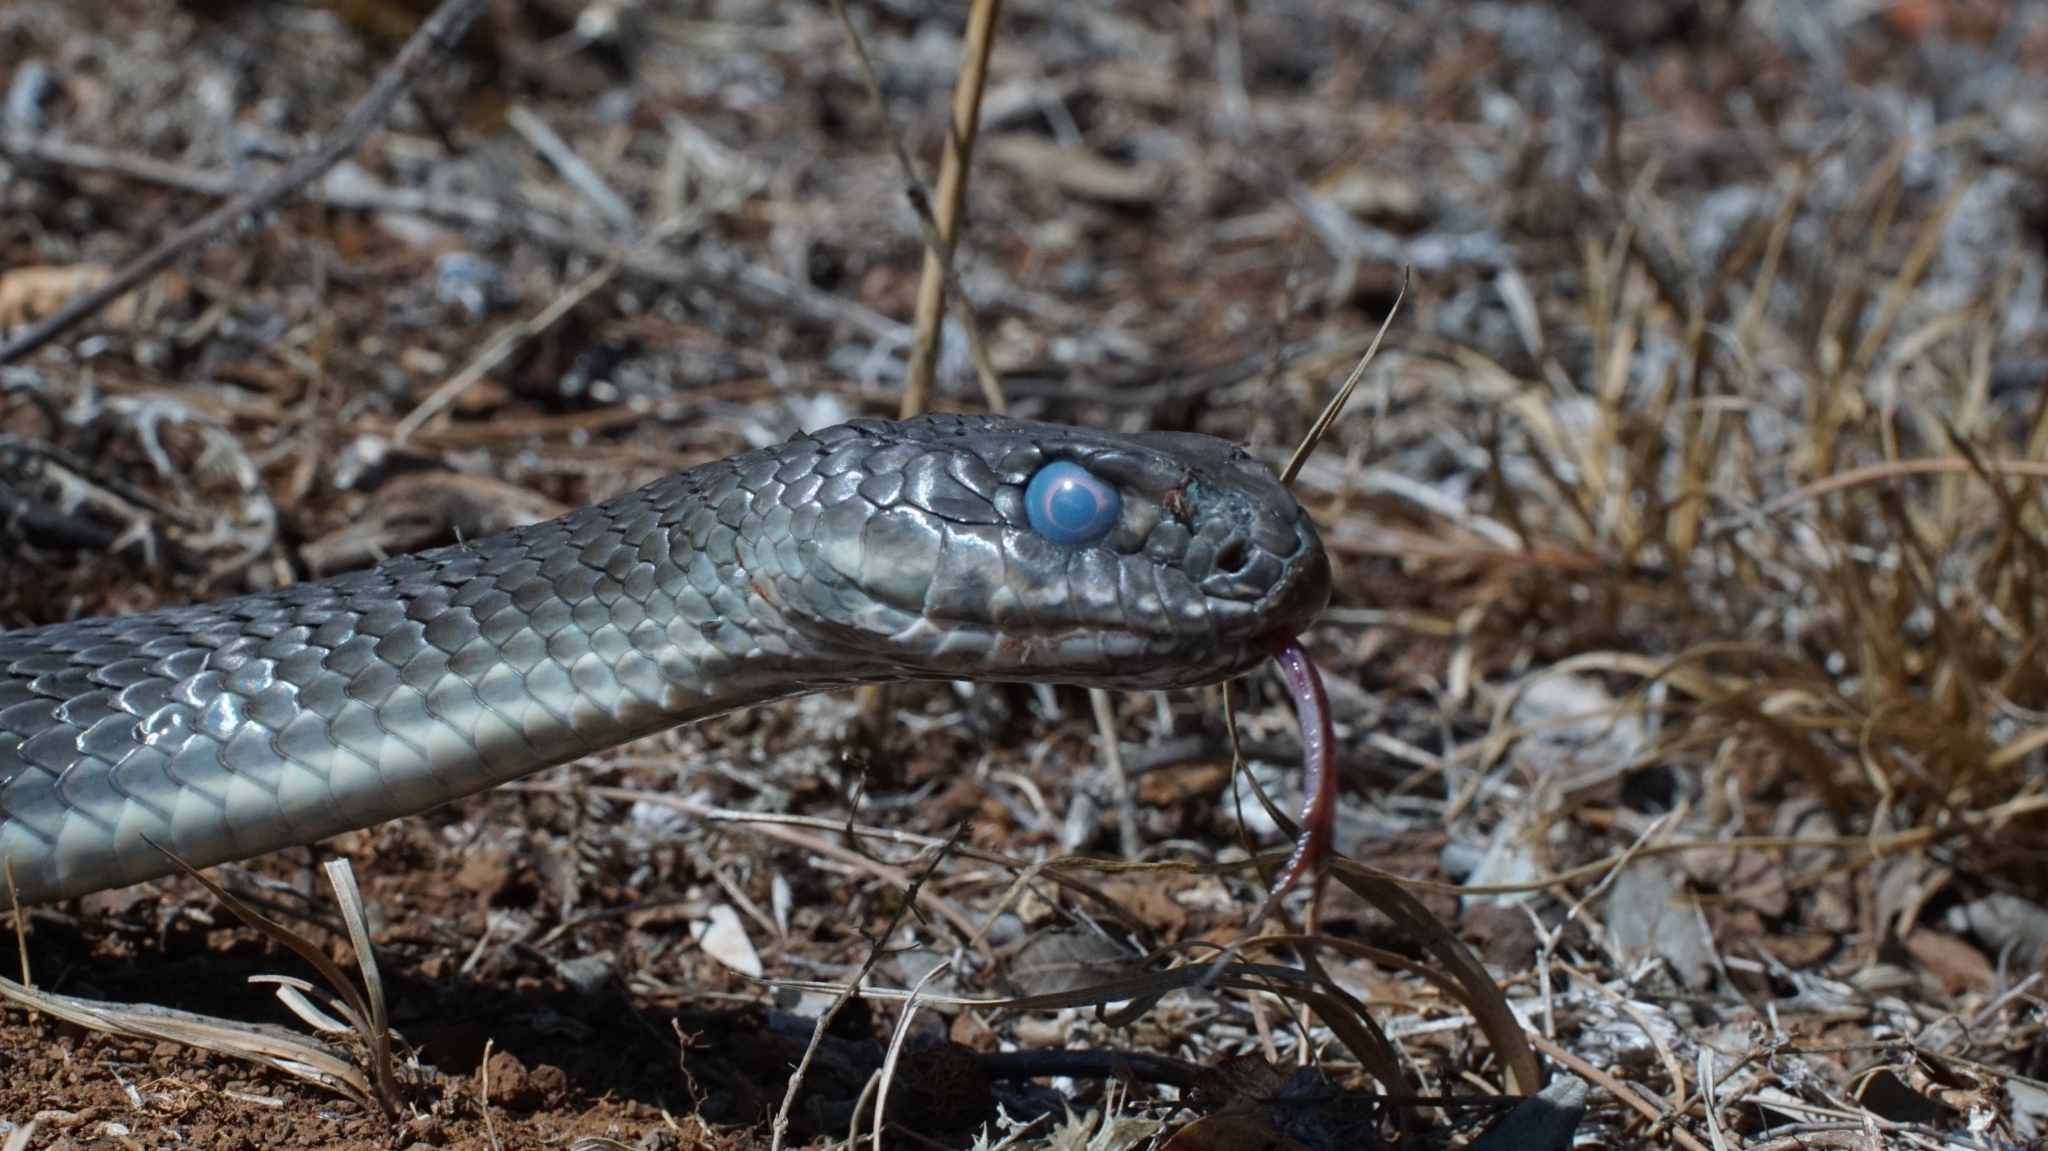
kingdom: Animalia
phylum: Chordata
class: Squamata
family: Psammophiidae
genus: Malpolon
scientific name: Malpolon insignitus
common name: Eastern montpellier snake
